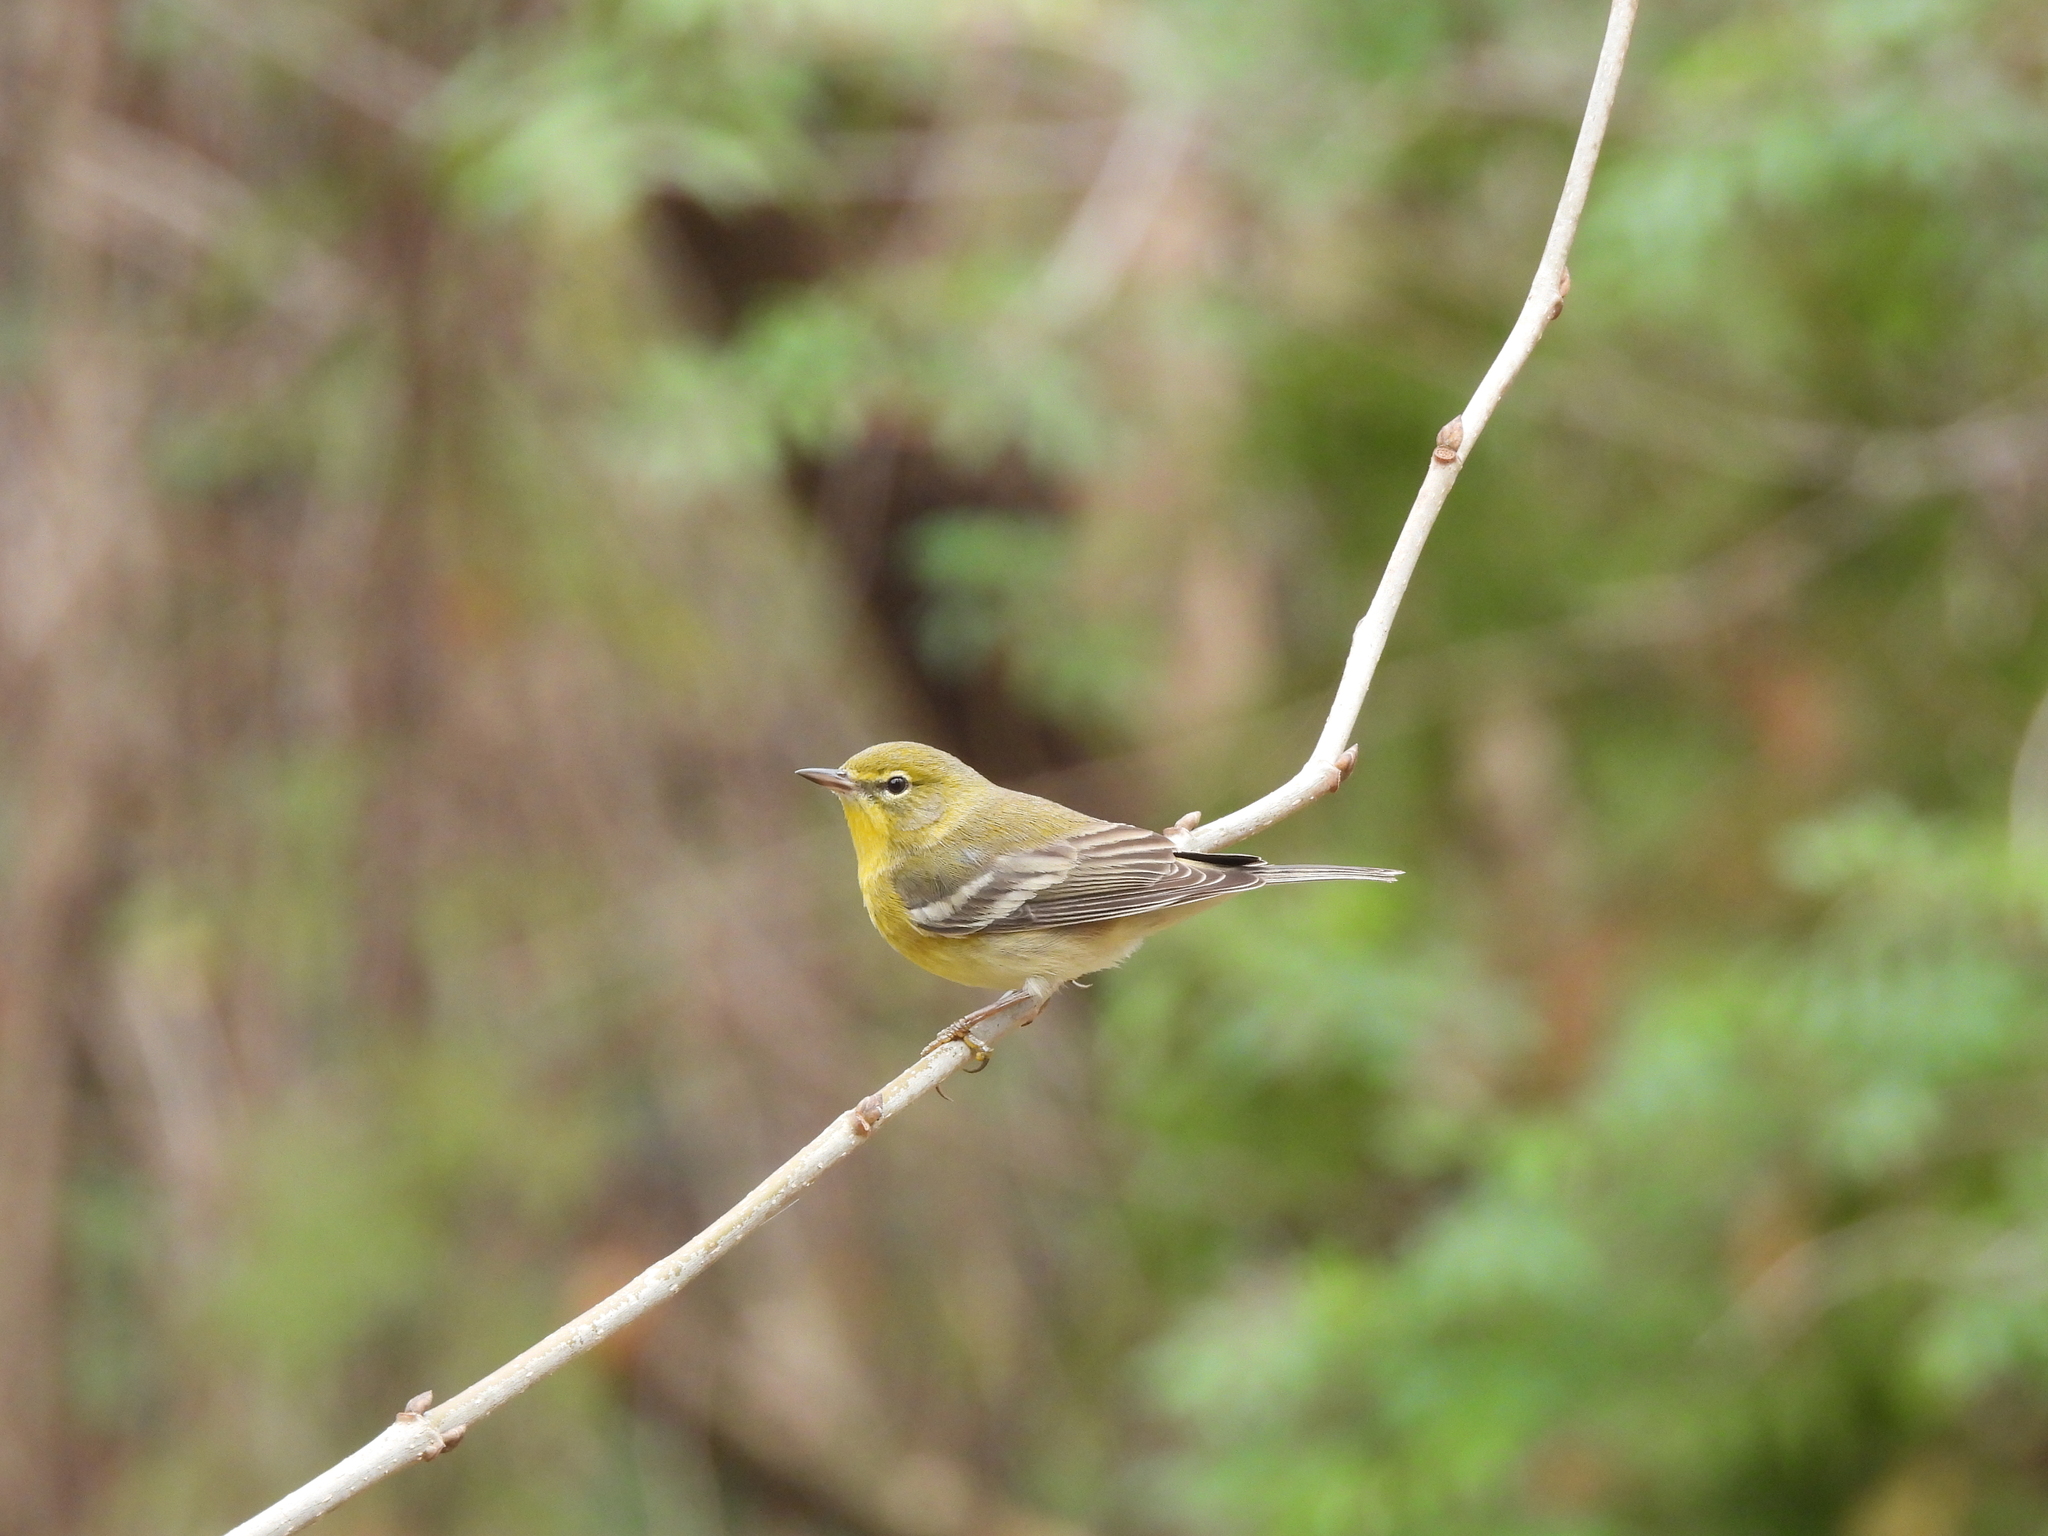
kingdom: Animalia
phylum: Chordata
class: Aves
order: Passeriformes
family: Parulidae
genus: Setophaga
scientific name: Setophaga pinus
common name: Pine warbler
